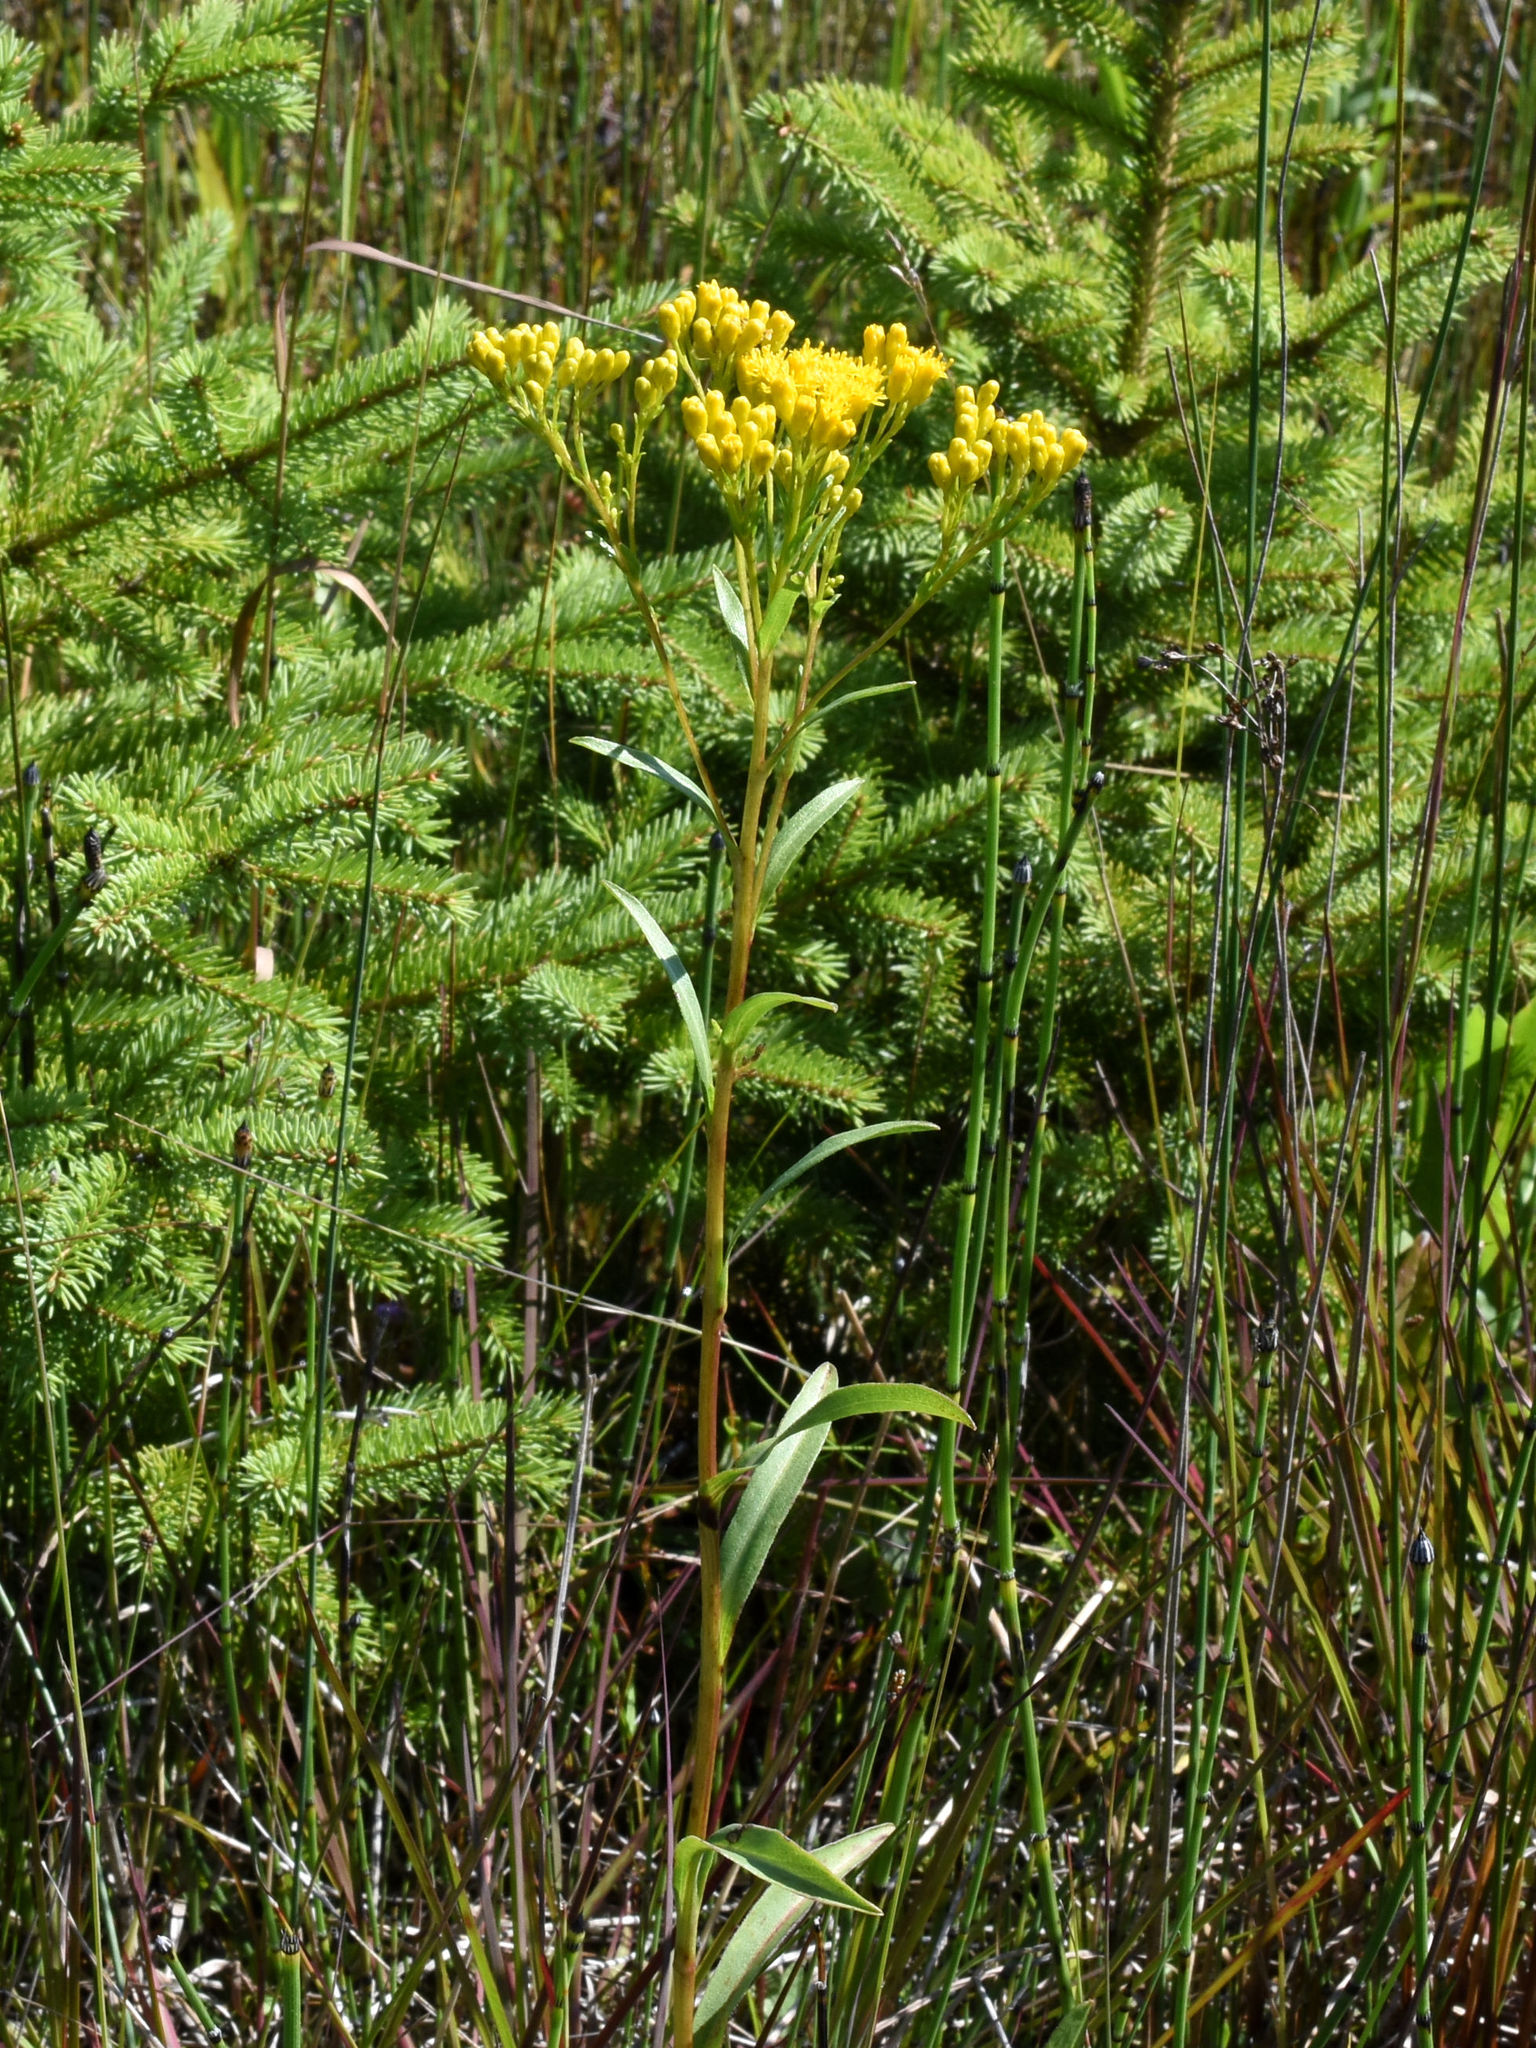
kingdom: Plantae
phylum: Tracheophyta
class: Magnoliopsida
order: Asterales
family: Asteraceae
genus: Solidago
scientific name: Solidago ohioensis
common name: Ohio goldenrod
